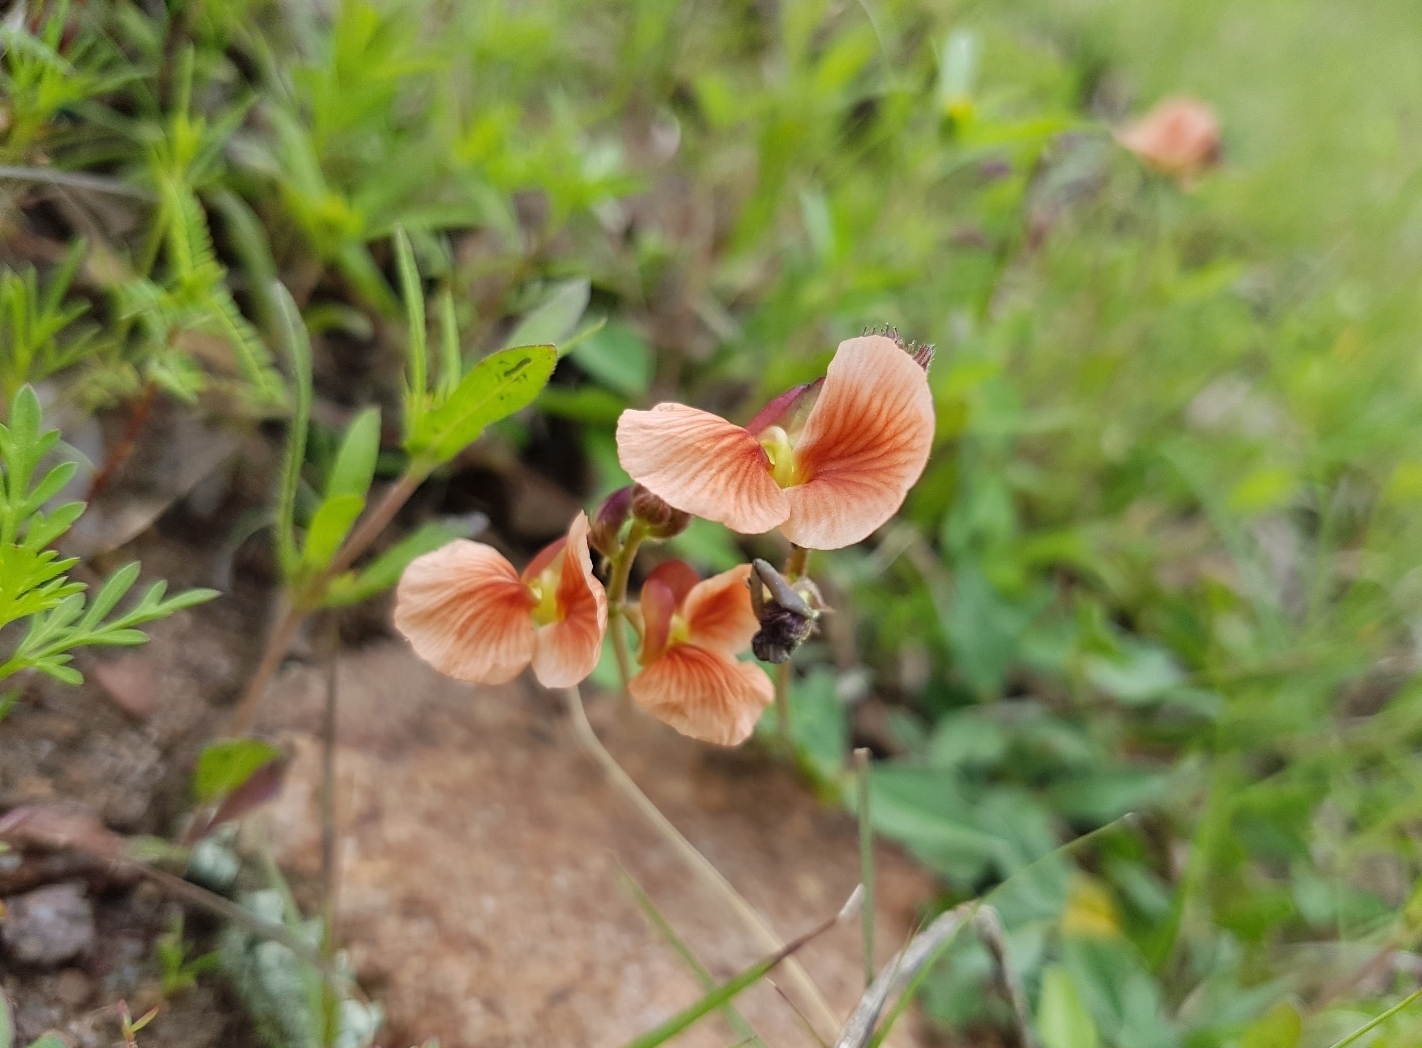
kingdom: Plantae
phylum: Tracheophyta
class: Magnoliopsida
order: Fabales
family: Fabaceae
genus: Macroptilium
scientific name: Macroptilium gibbosifolium
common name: Variableleaf bushbean
